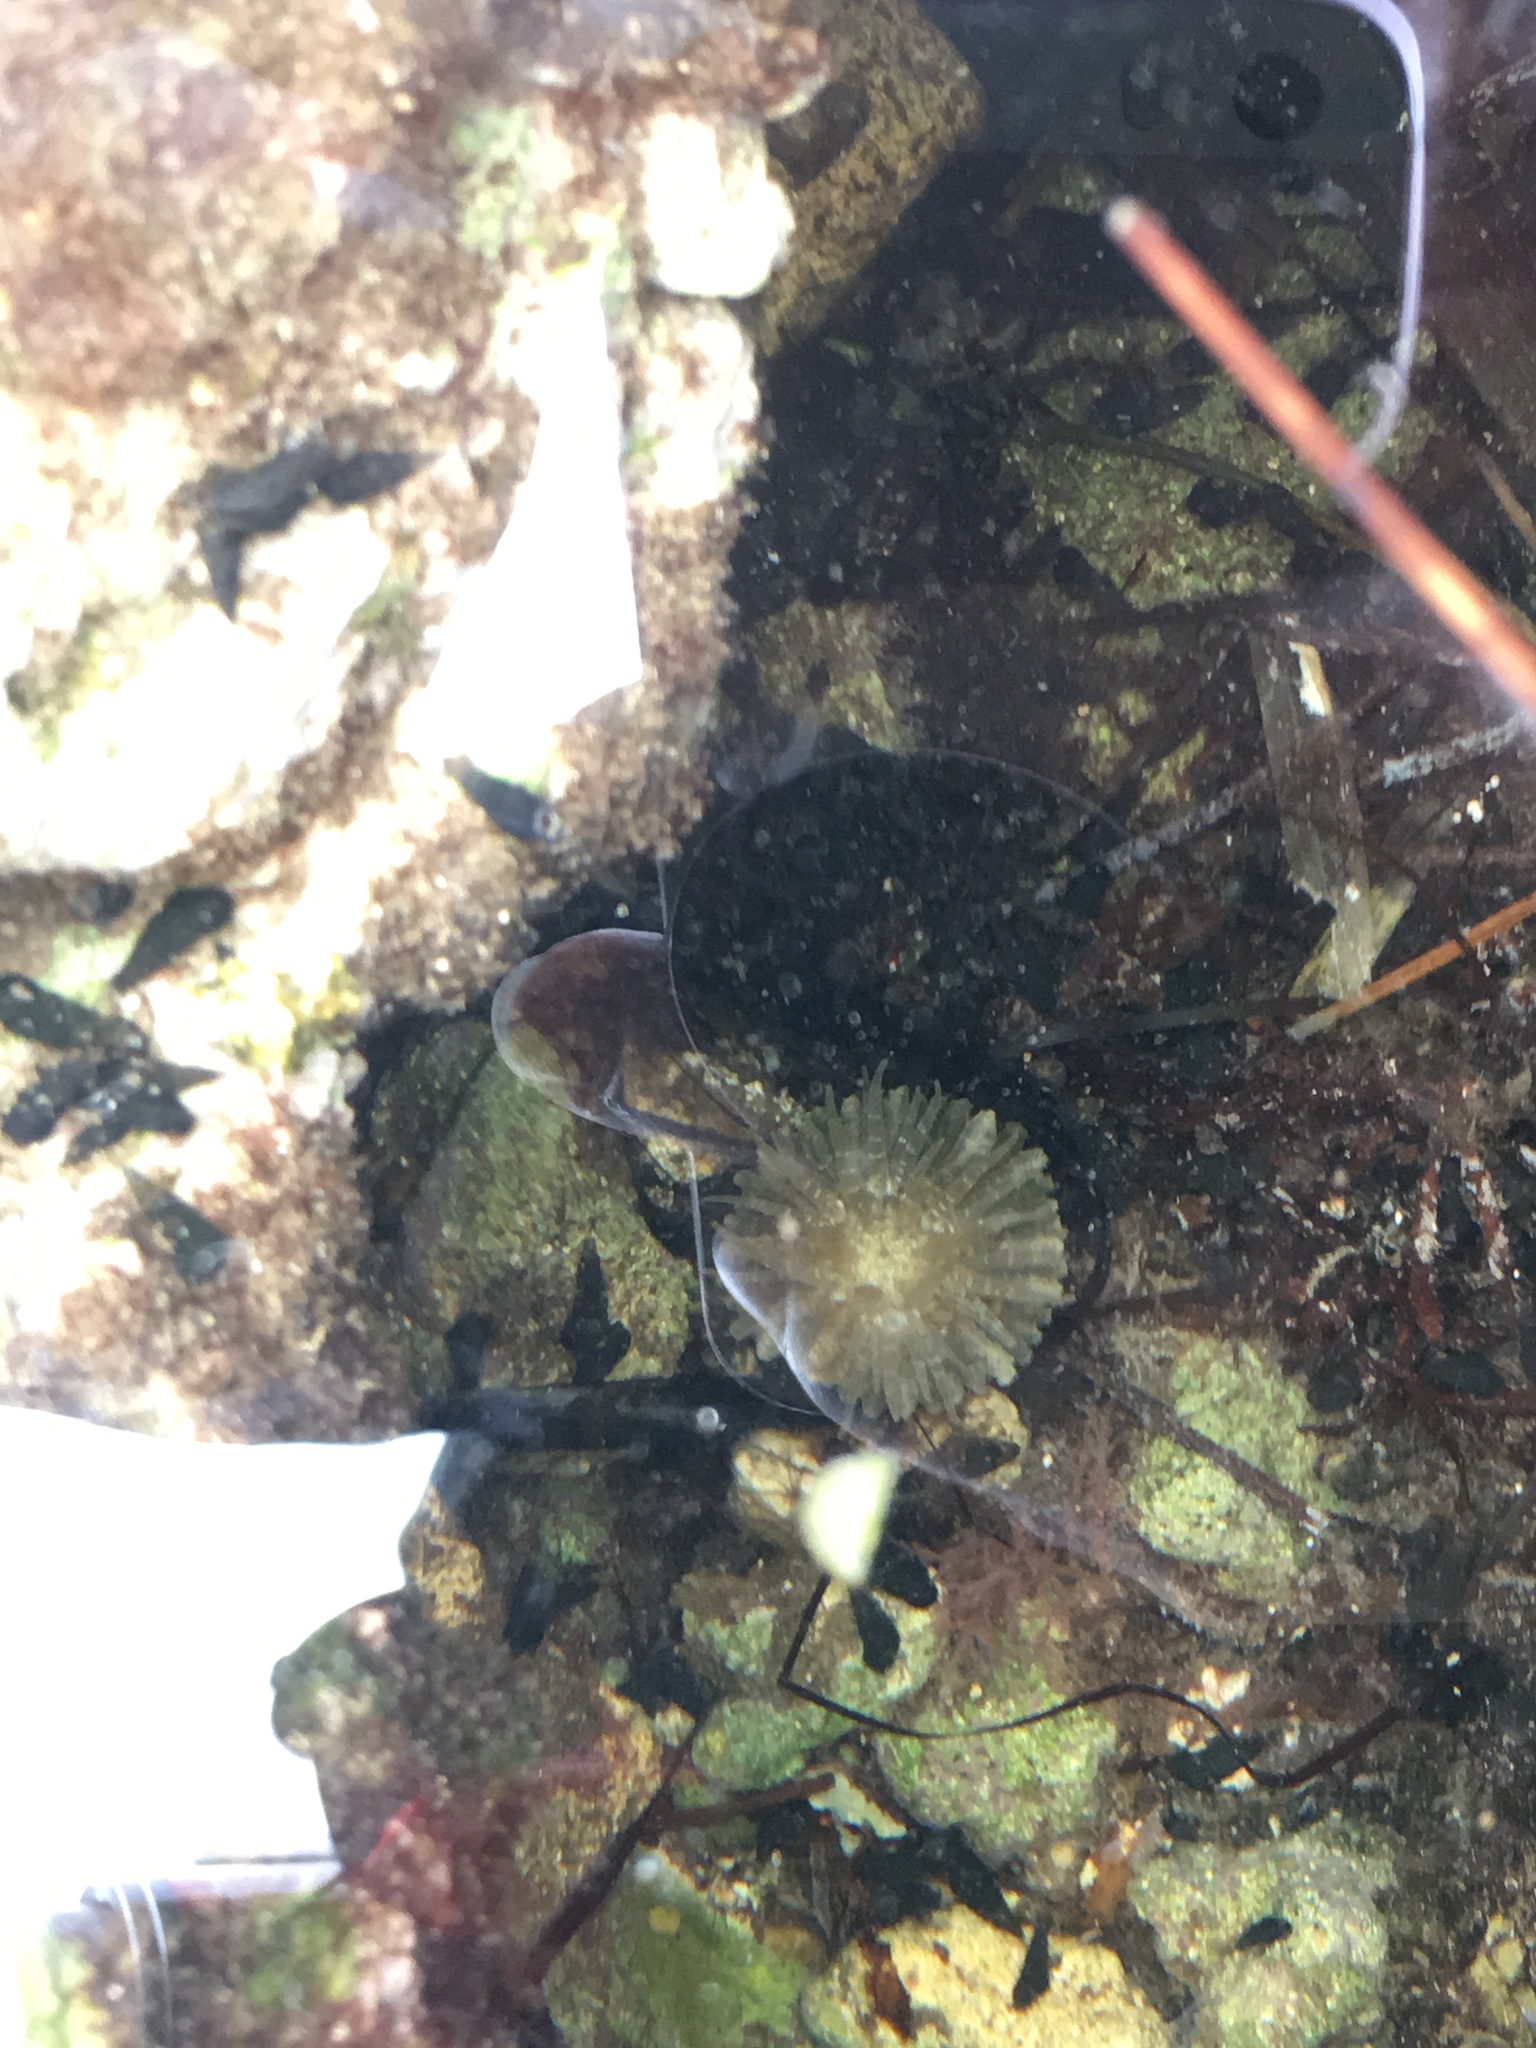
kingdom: Animalia
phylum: Cnidaria
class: Anthozoa
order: Actiniaria
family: Actiniidae
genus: Actinostella
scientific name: Actinostella flosculifera
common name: Collared sand anemone
